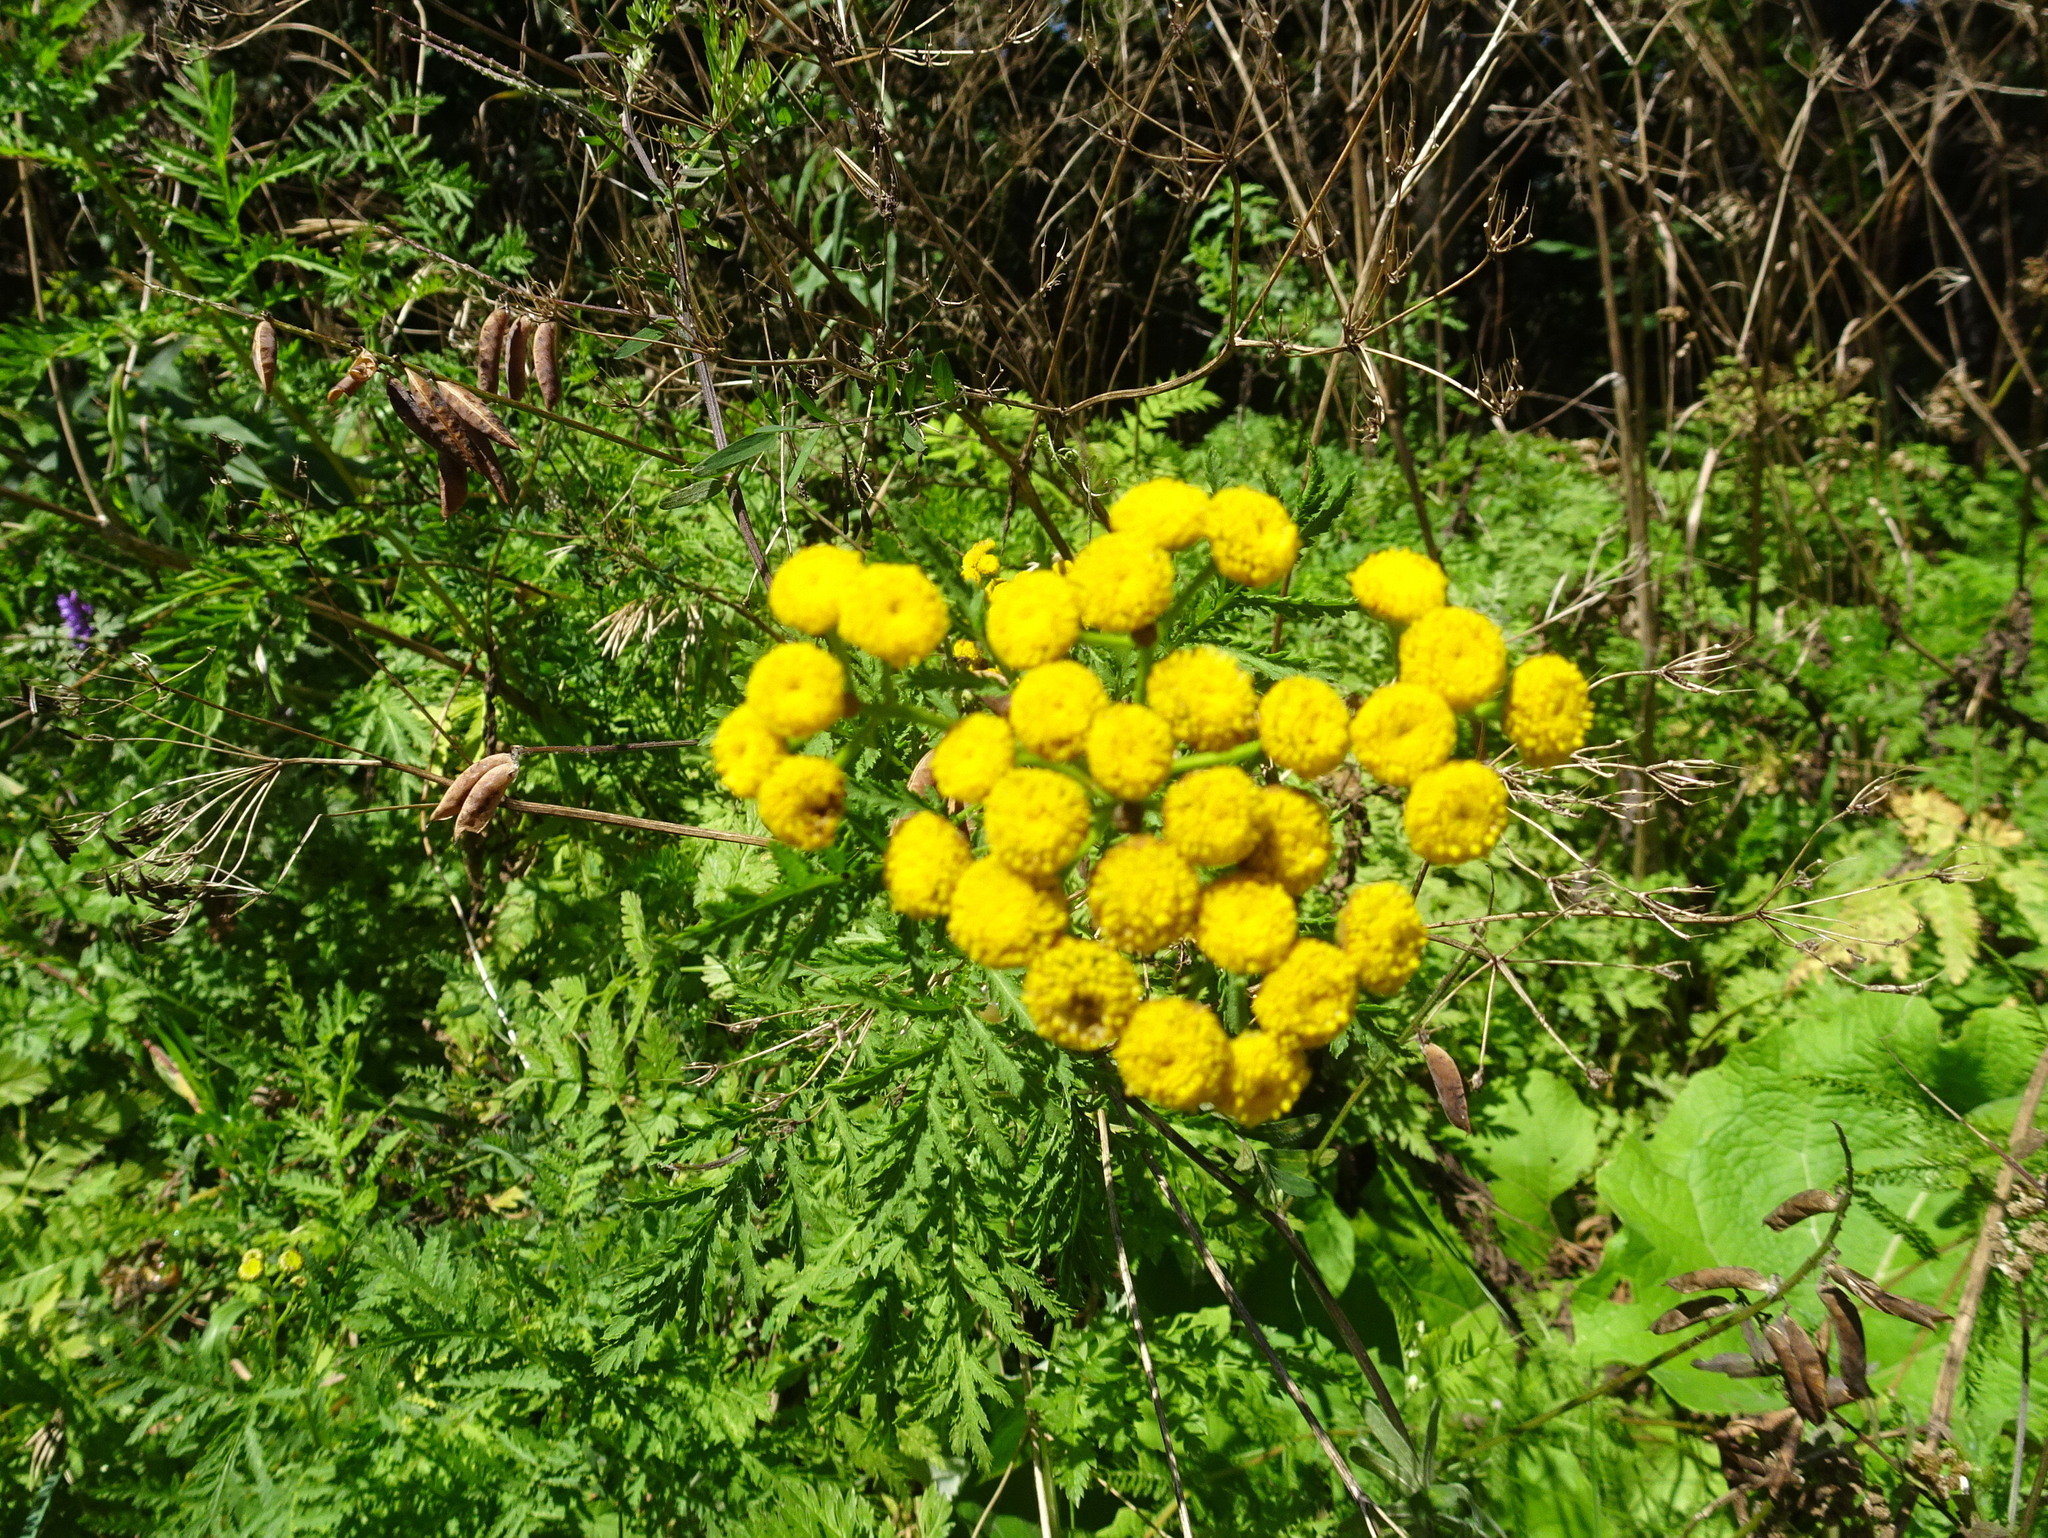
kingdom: Plantae
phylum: Tracheophyta
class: Magnoliopsida
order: Asterales
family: Asteraceae
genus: Tanacetum
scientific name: Tanacetum vulgare
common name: Common tansy
